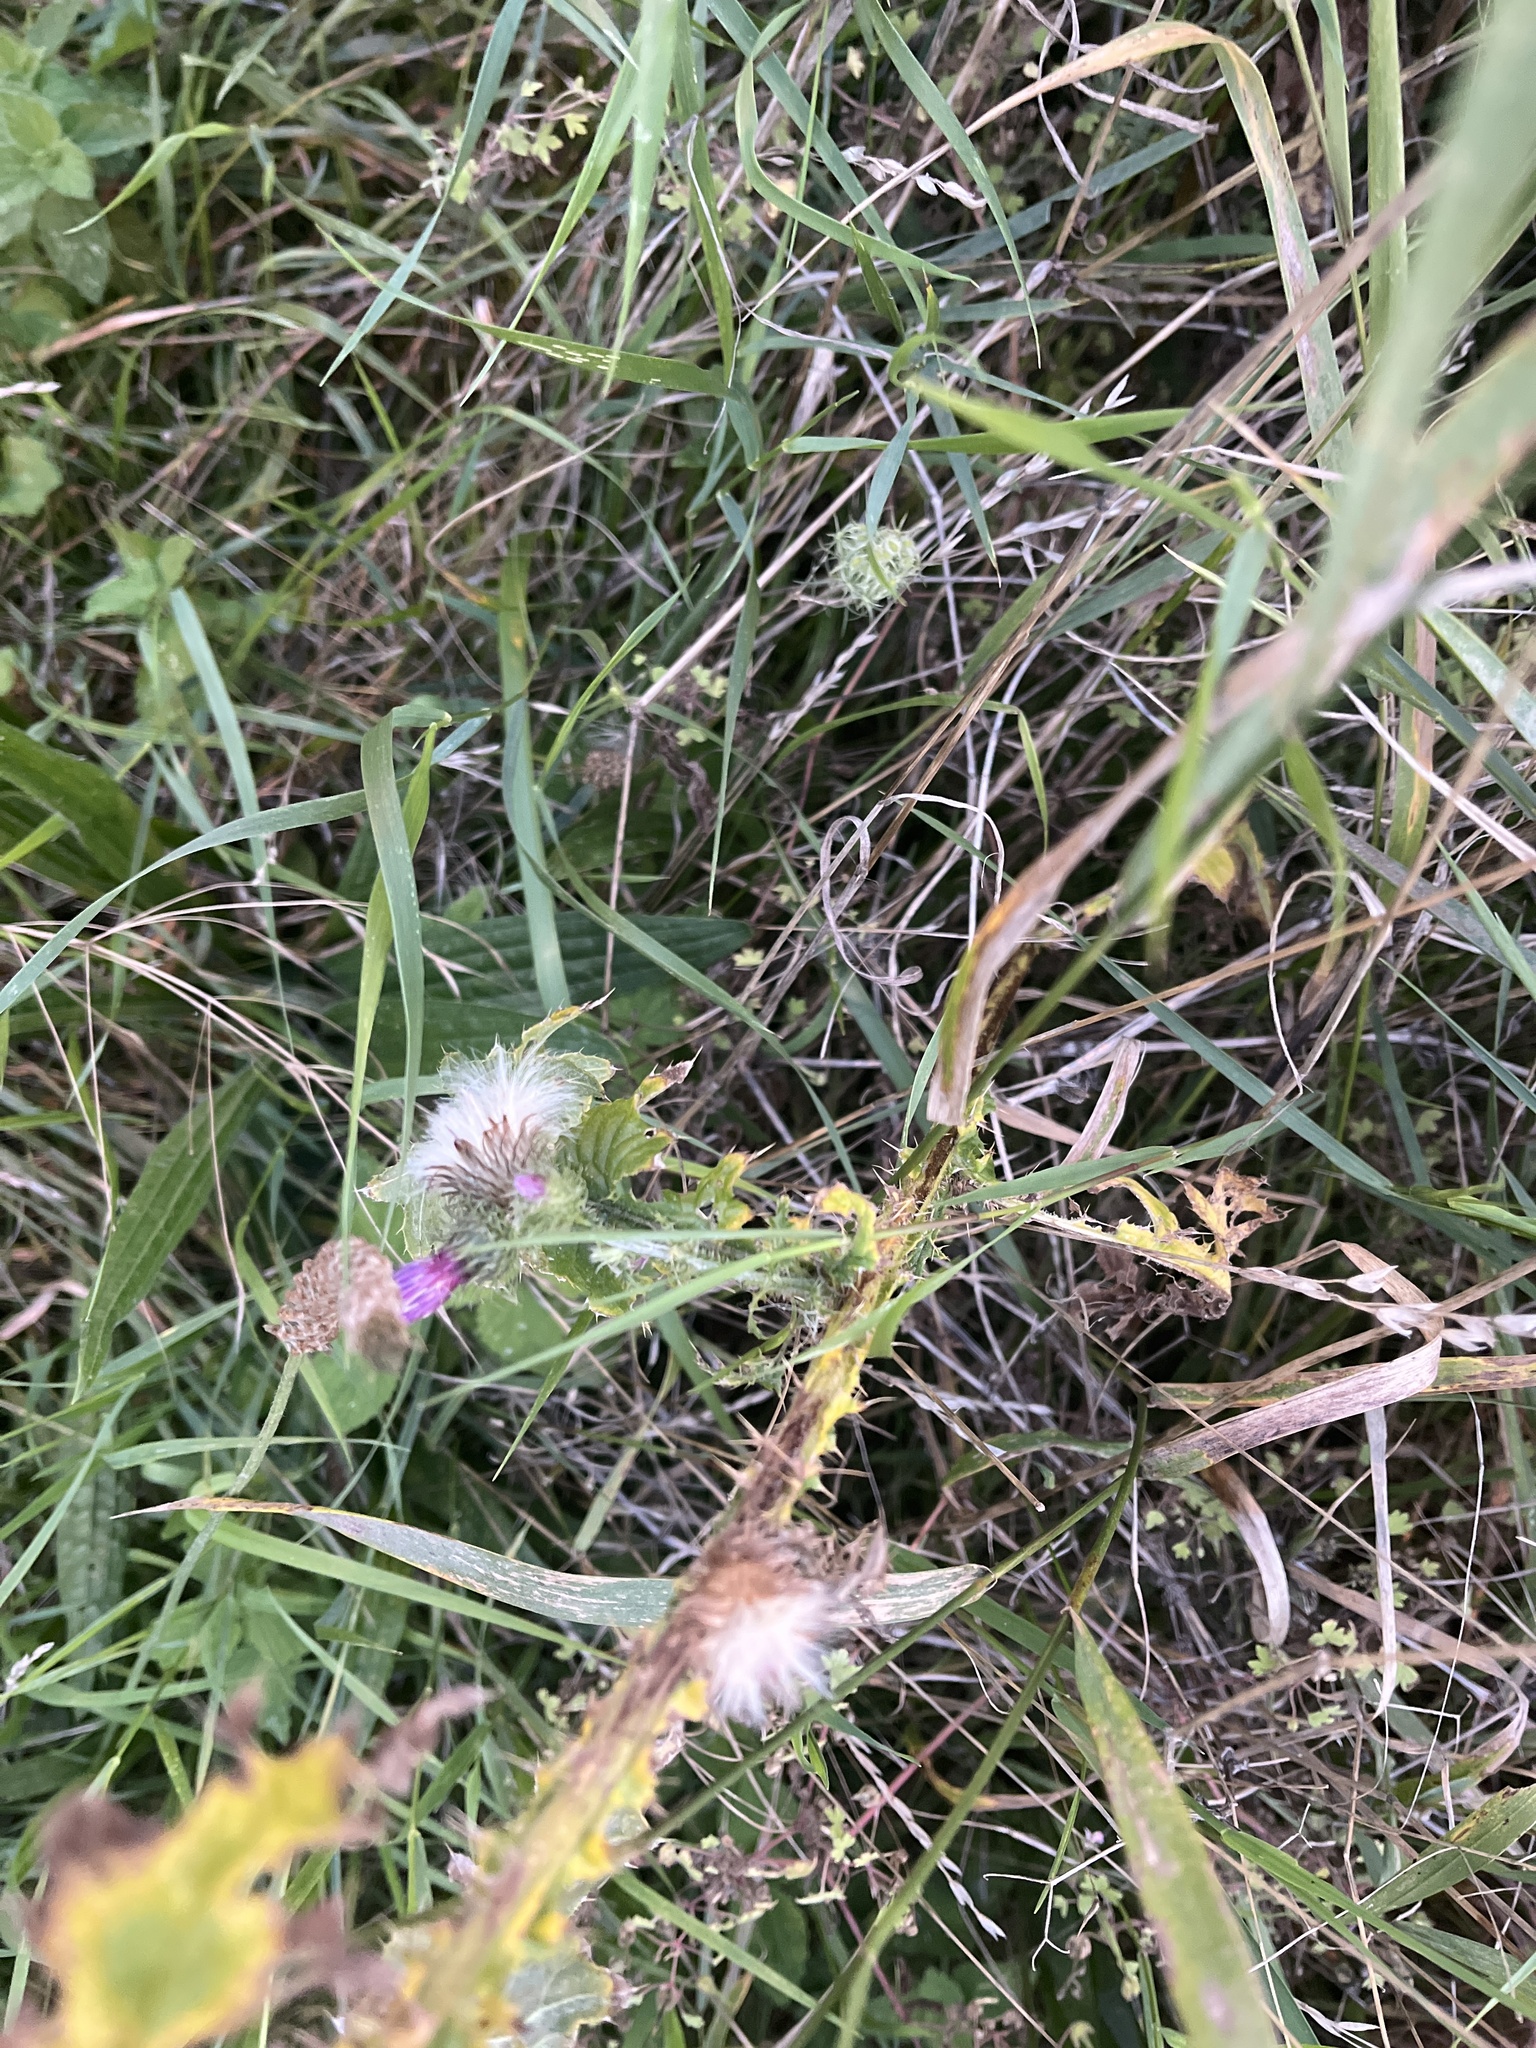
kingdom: Plantae
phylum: Tracheophyta
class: Magnoliopsida
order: Asterales
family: Asteraceae
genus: Carduus
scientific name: Carduus crispus
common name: Welted thistle
